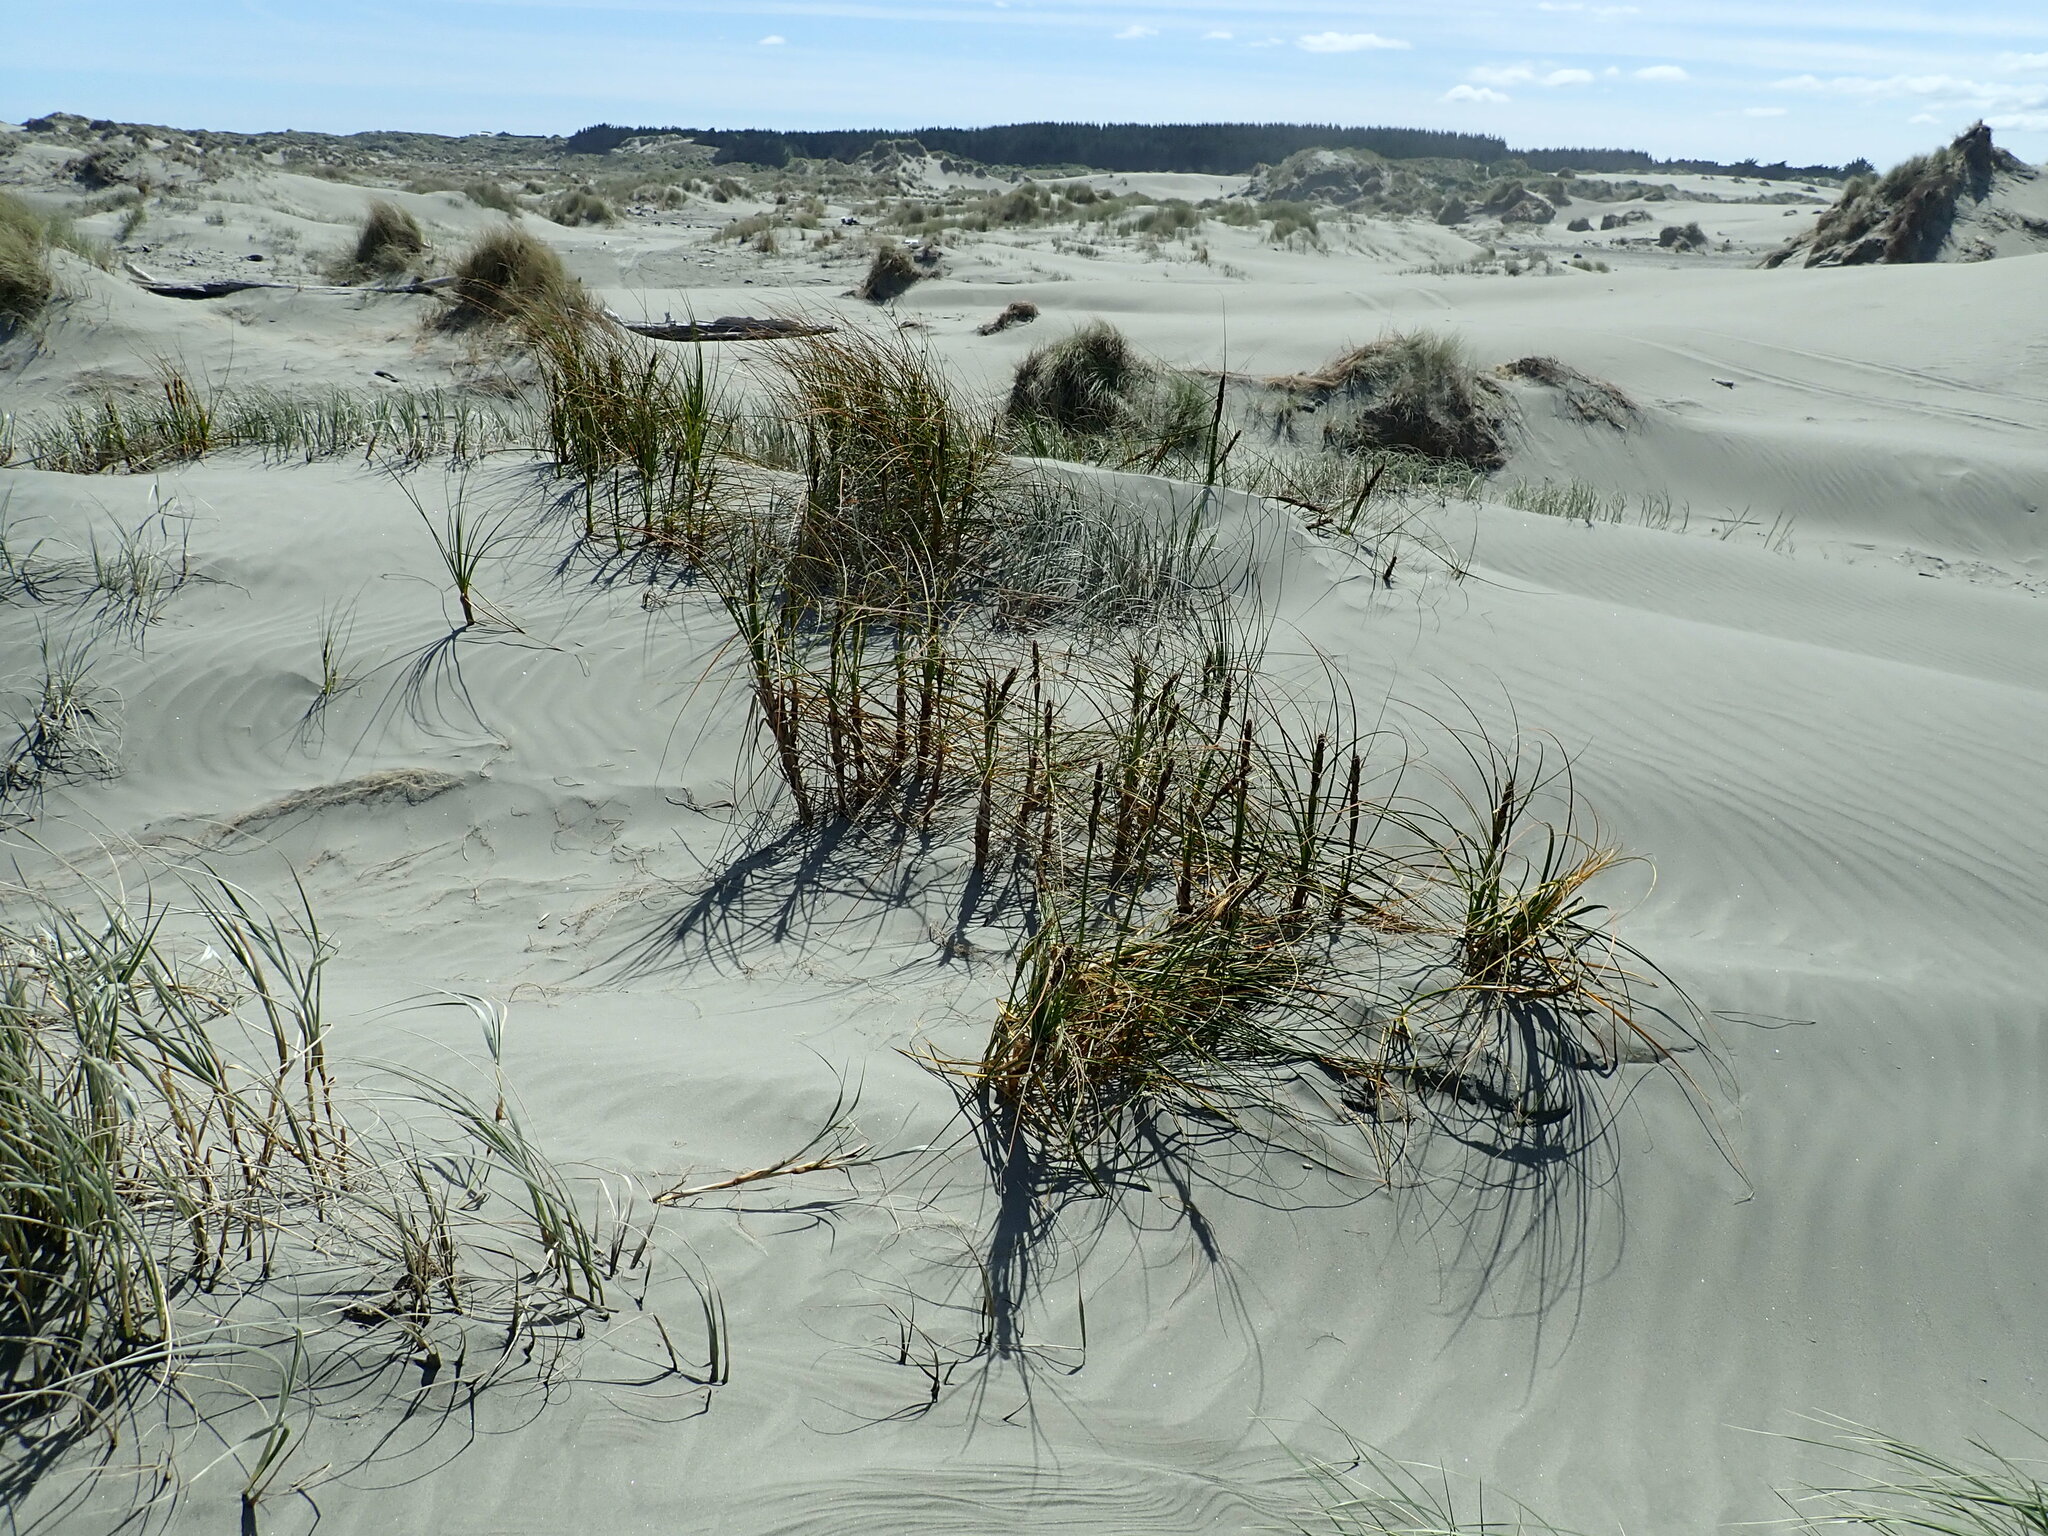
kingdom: Plantae
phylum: Tracheophyta
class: Liliopsida
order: Poales
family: Cyperaceae
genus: Ficinia
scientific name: Ficinia spiralis
